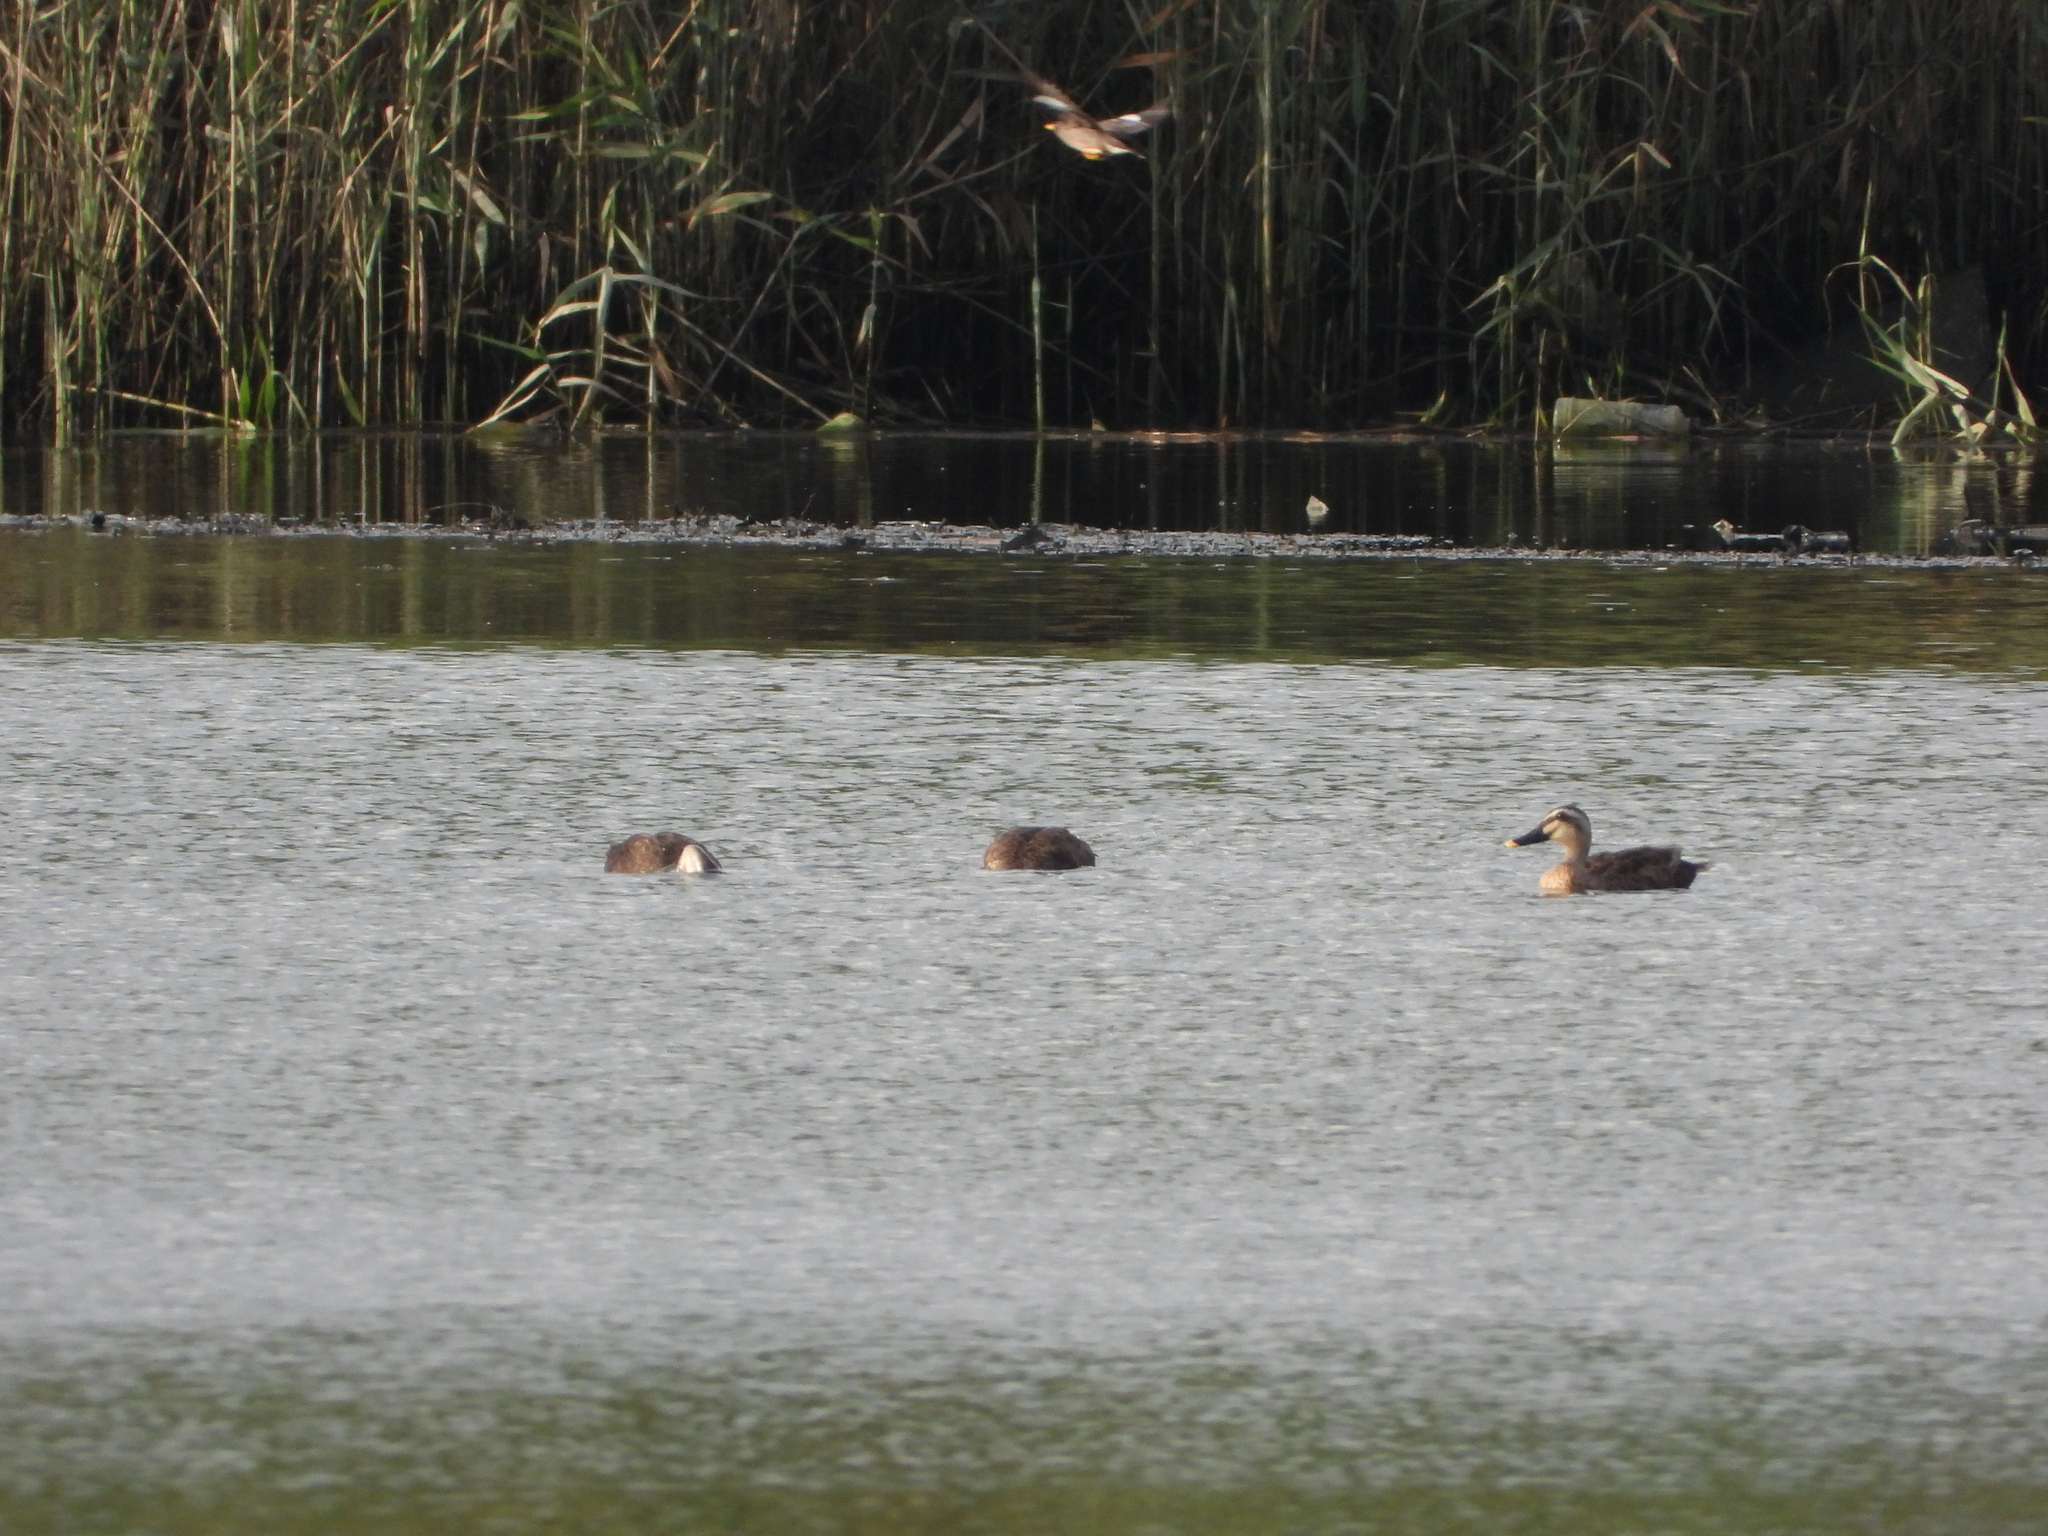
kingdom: Animalia
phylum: Chordata
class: Aves
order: Anseriformes
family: Anatidae
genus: Anas
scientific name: Anas zonorhyncha
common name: Eastern spot-billed duck
